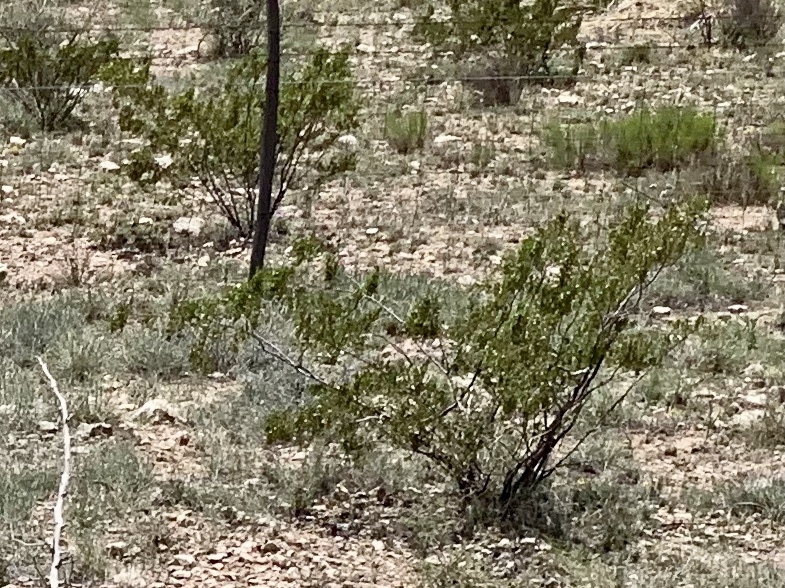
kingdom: Plantae
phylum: Tracheophyta
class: Magnoliopsida
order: Zygophyllales
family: Zygophyllaceae
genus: Larrea
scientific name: Larrea tridentata
